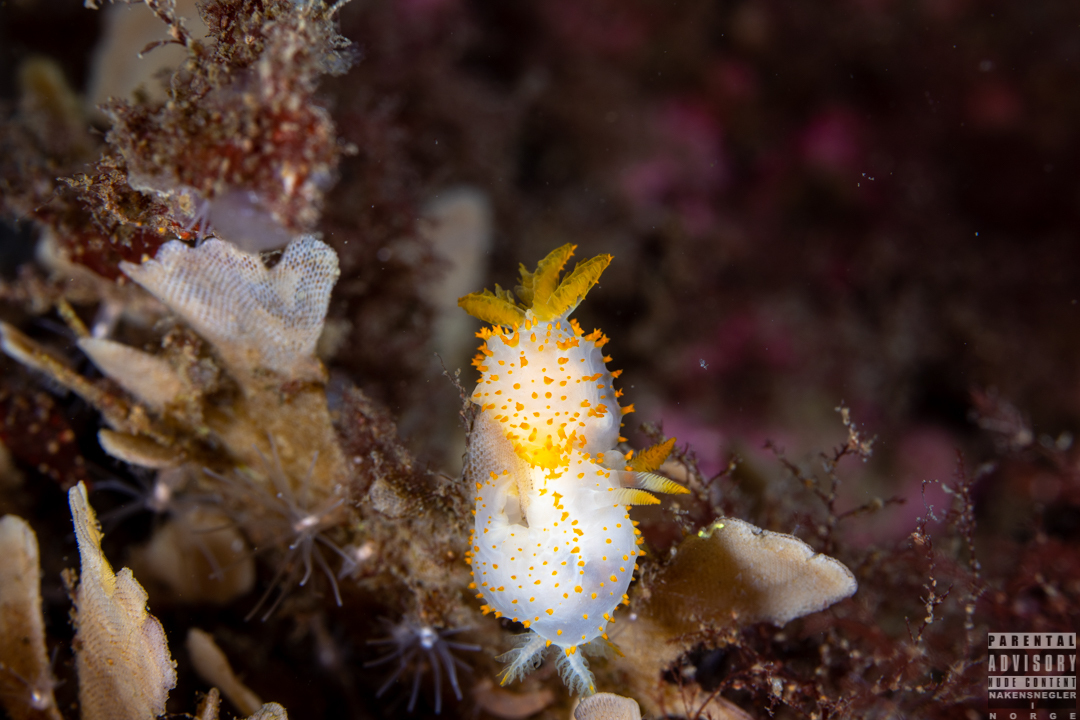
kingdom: Animalia
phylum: Mollusca
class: Gastropoda
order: Nudibranchia
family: Polyceridae
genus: Crimora
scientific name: Crimora papillata
